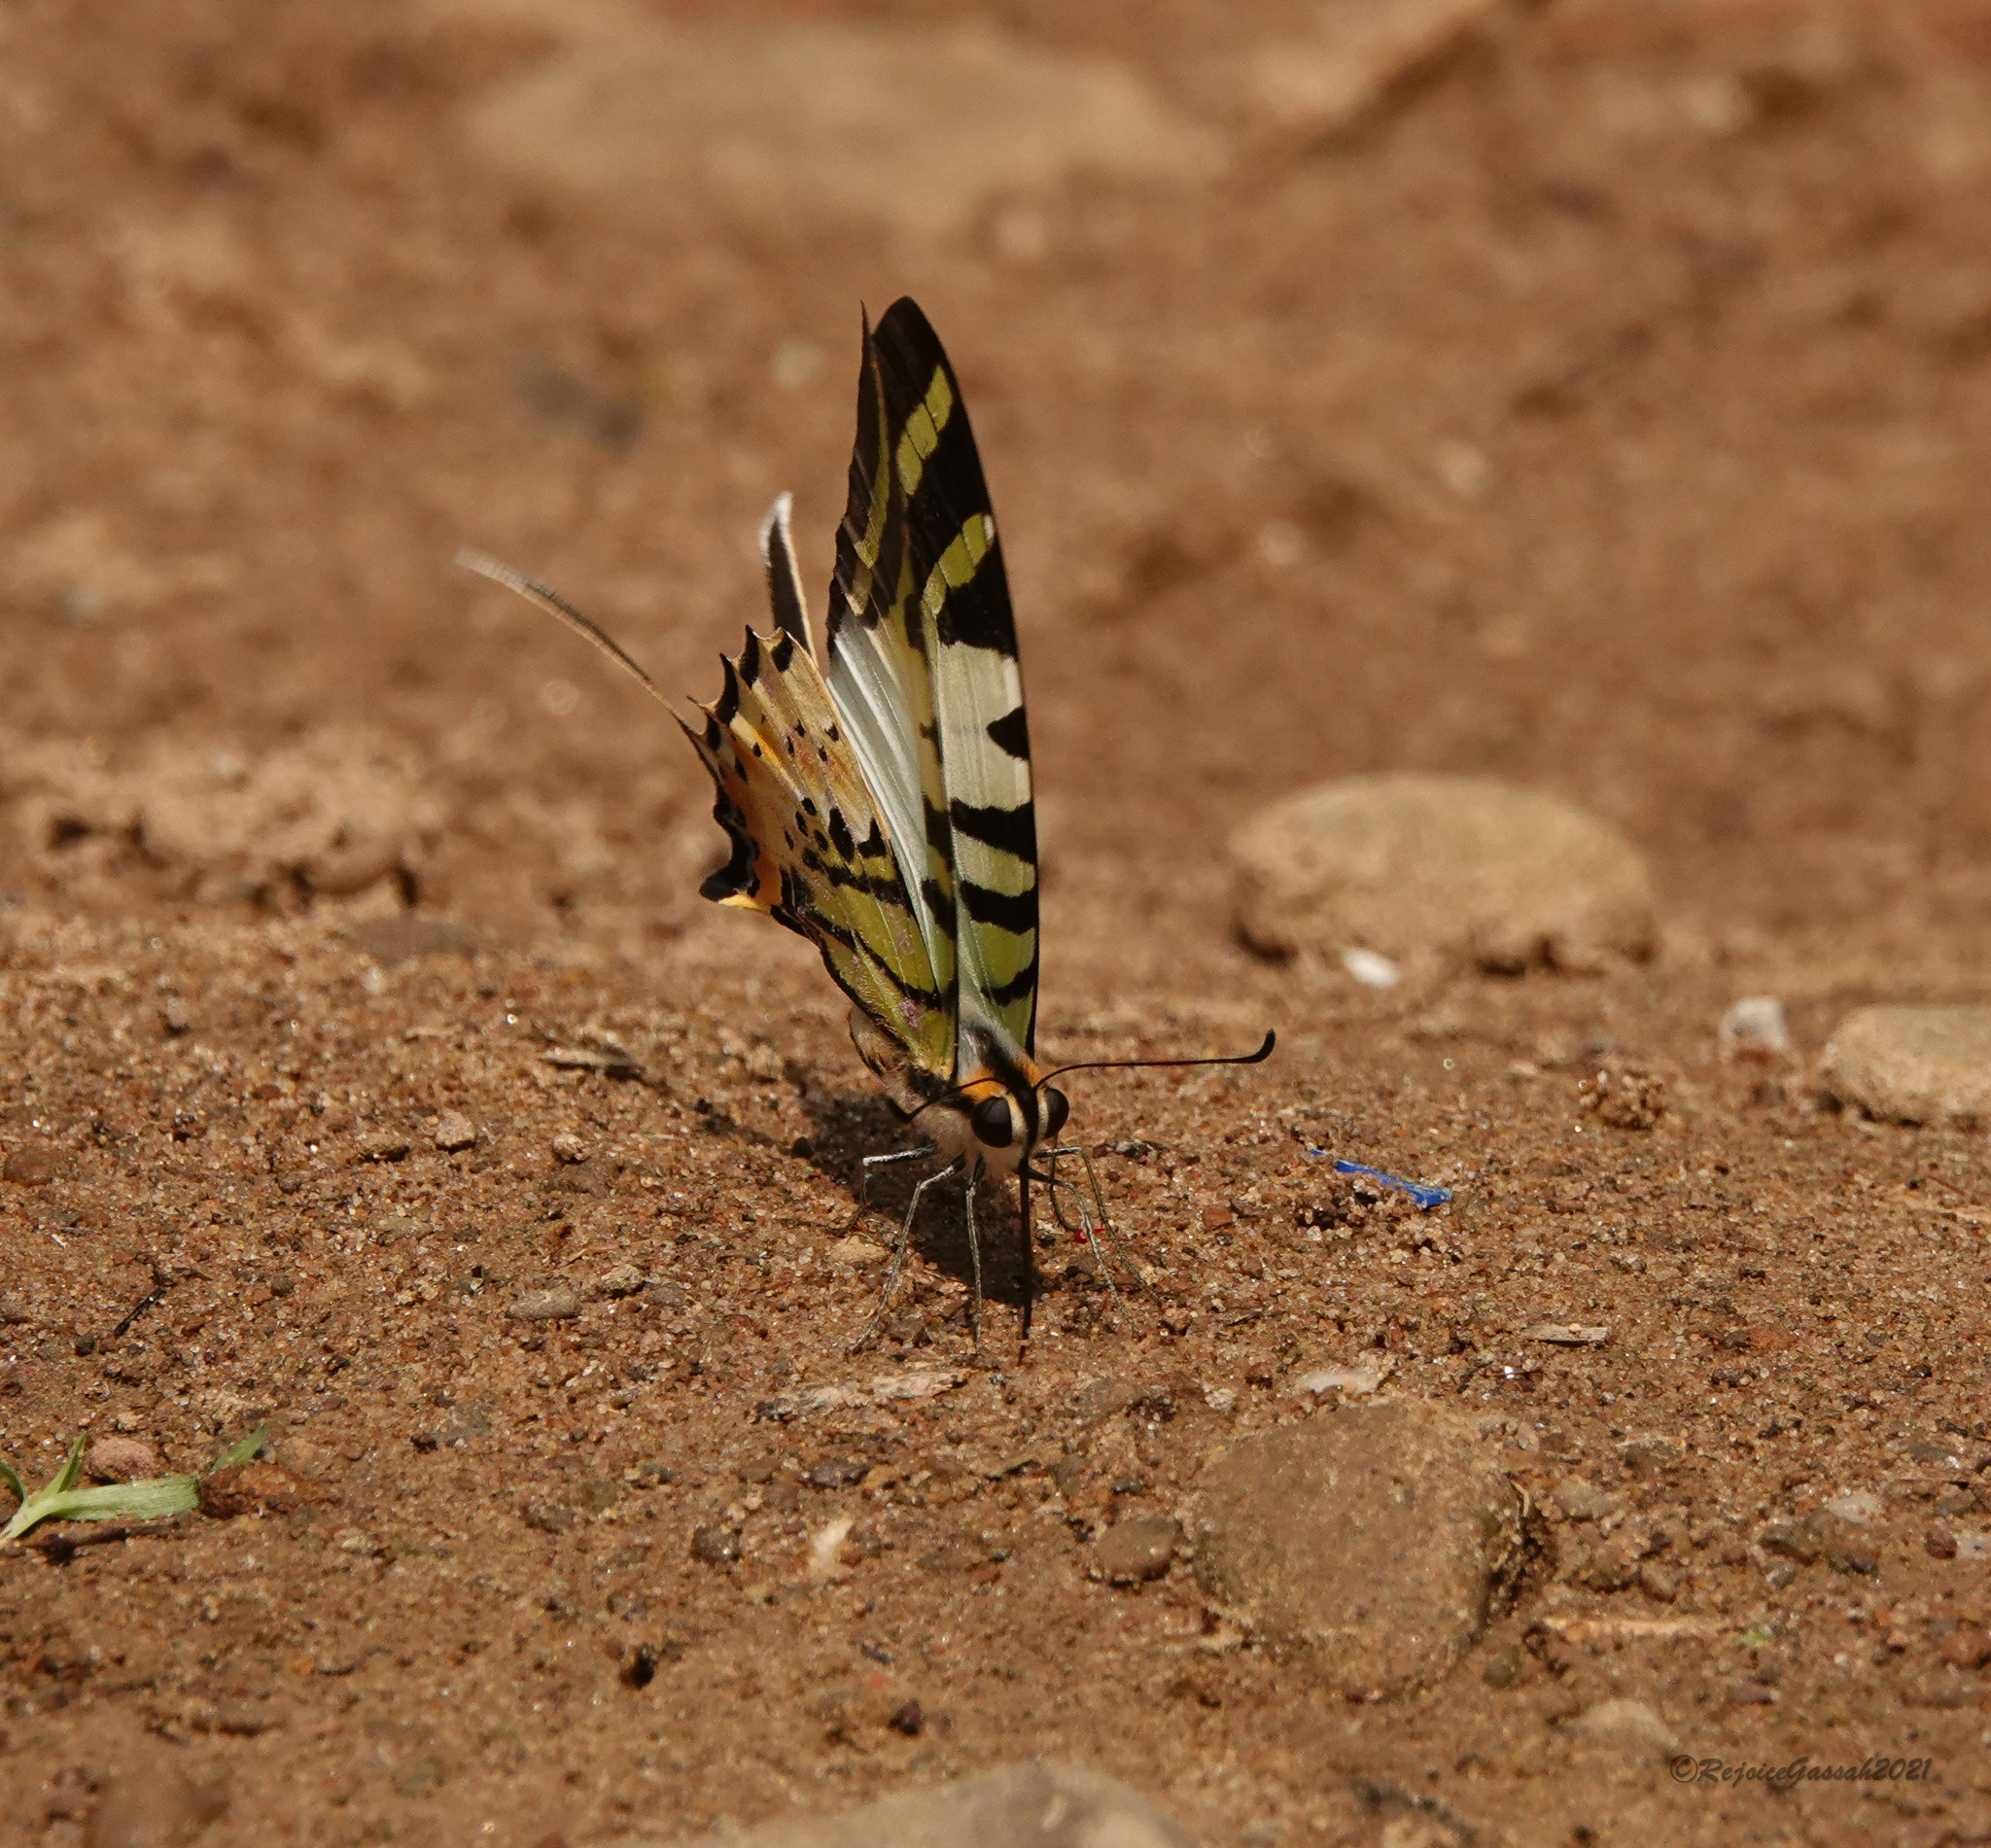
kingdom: Animalia
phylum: Arthropoda
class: Insecta
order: Lepidoptera
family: Papilionidae
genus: Graphium
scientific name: Graphium antiphates
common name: Fivebar swordtail
